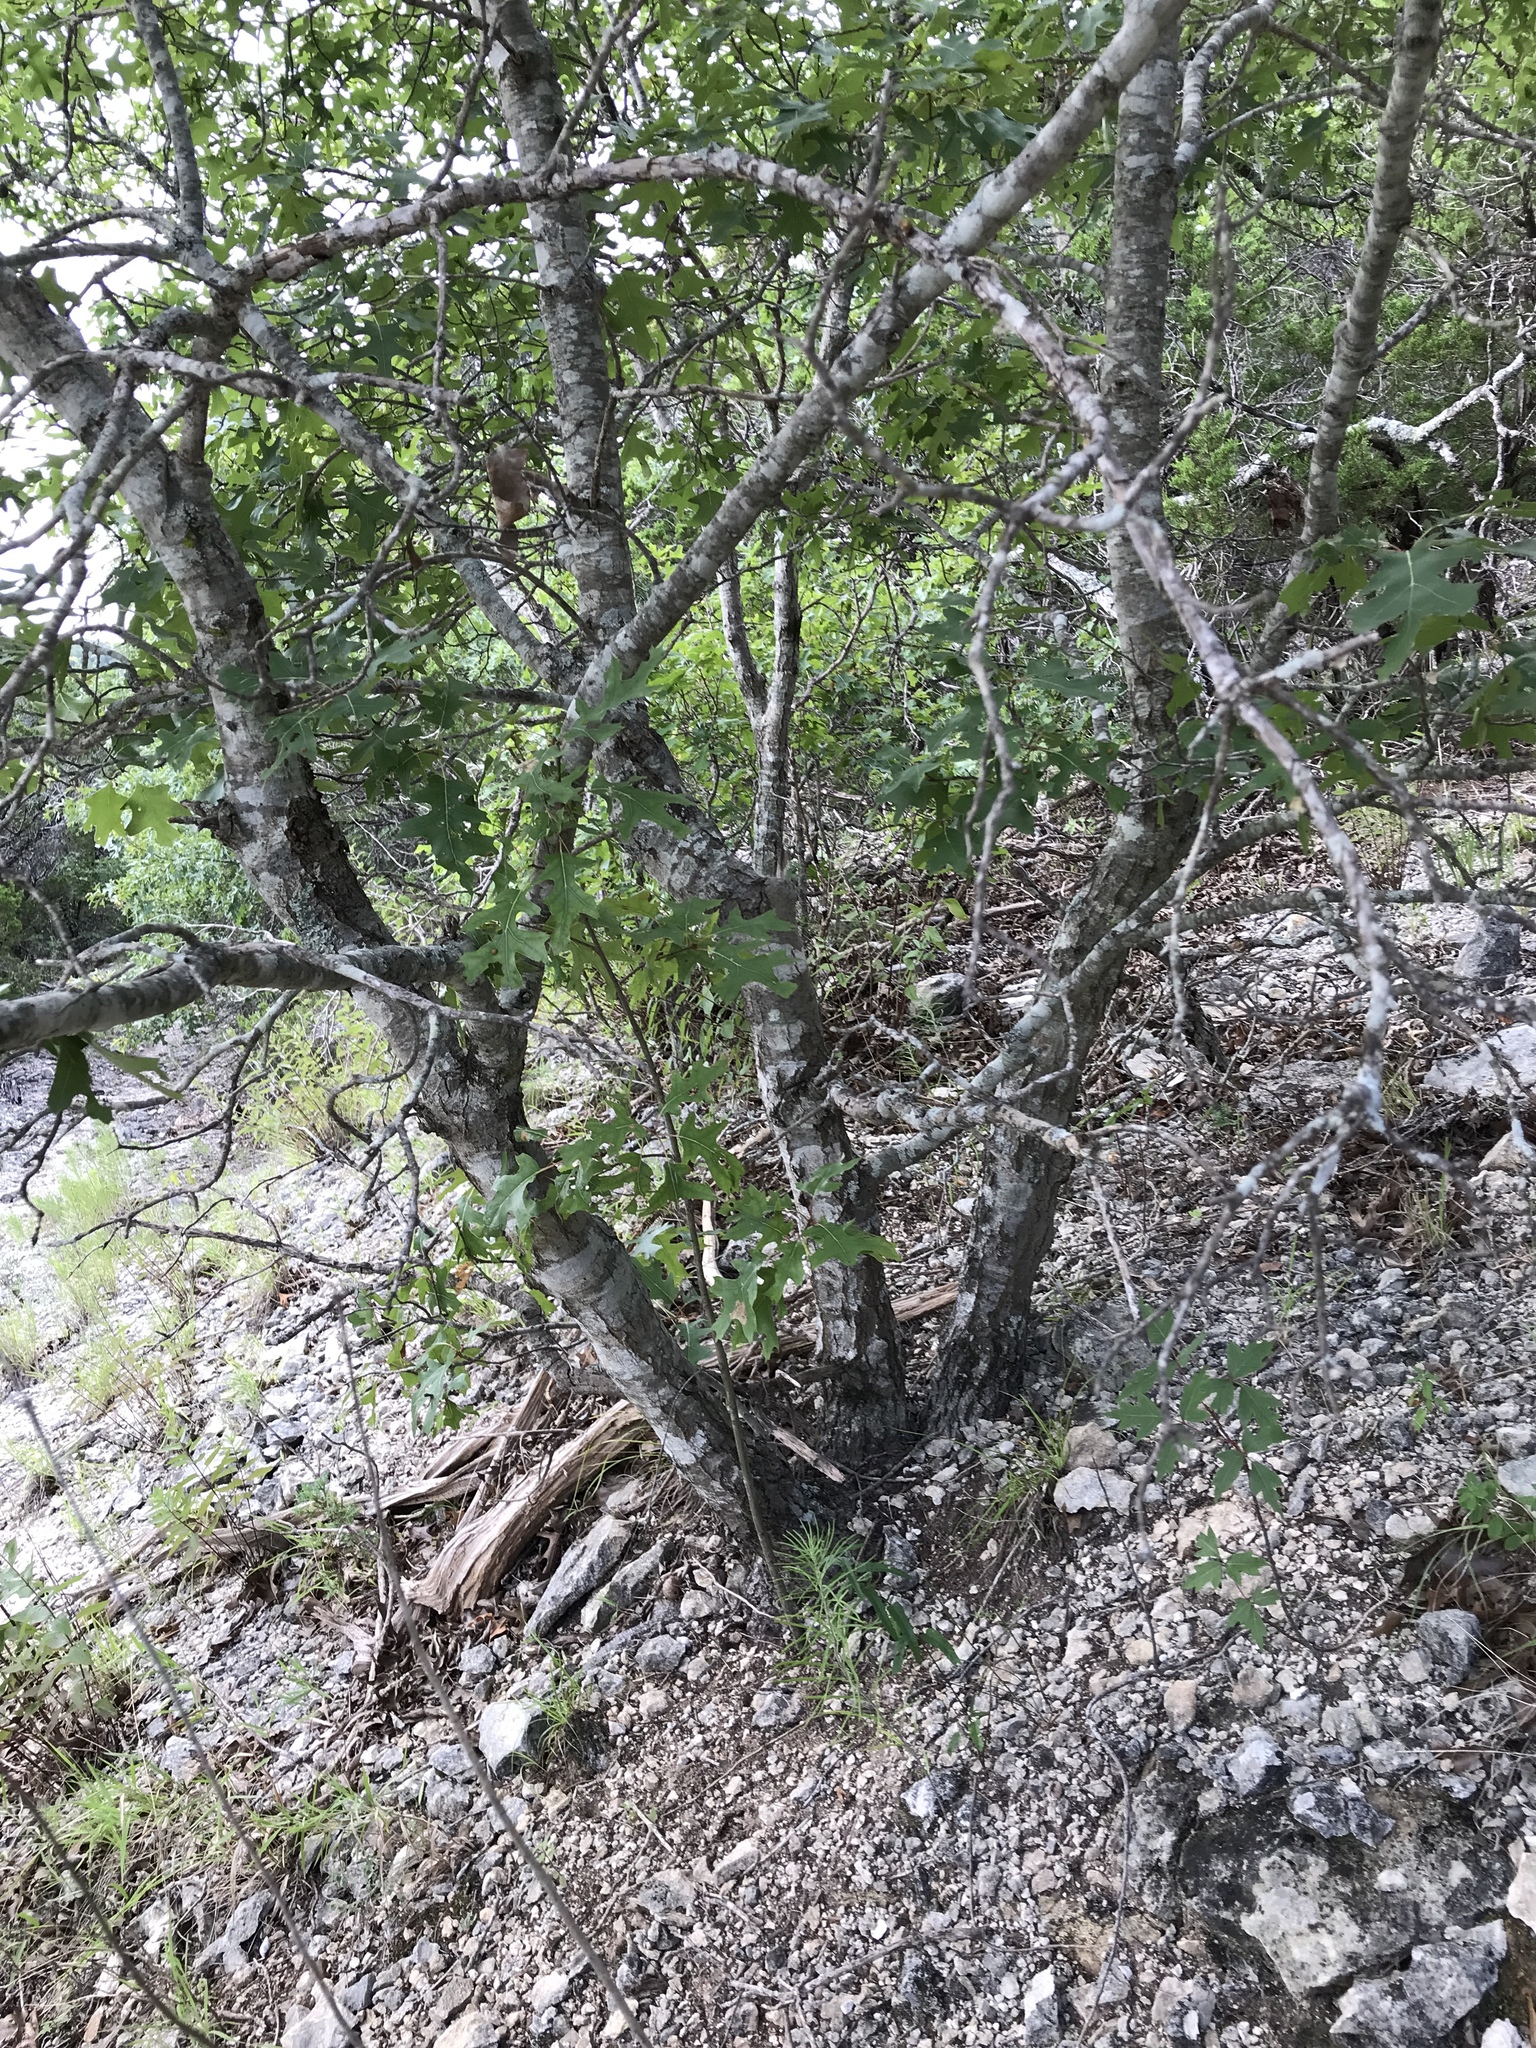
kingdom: Plantae
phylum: Tracheophyta
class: Magnoliopsida
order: Fagales
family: Fagaceae
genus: Quercus
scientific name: Quercus buckleyi
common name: Buckley oak
